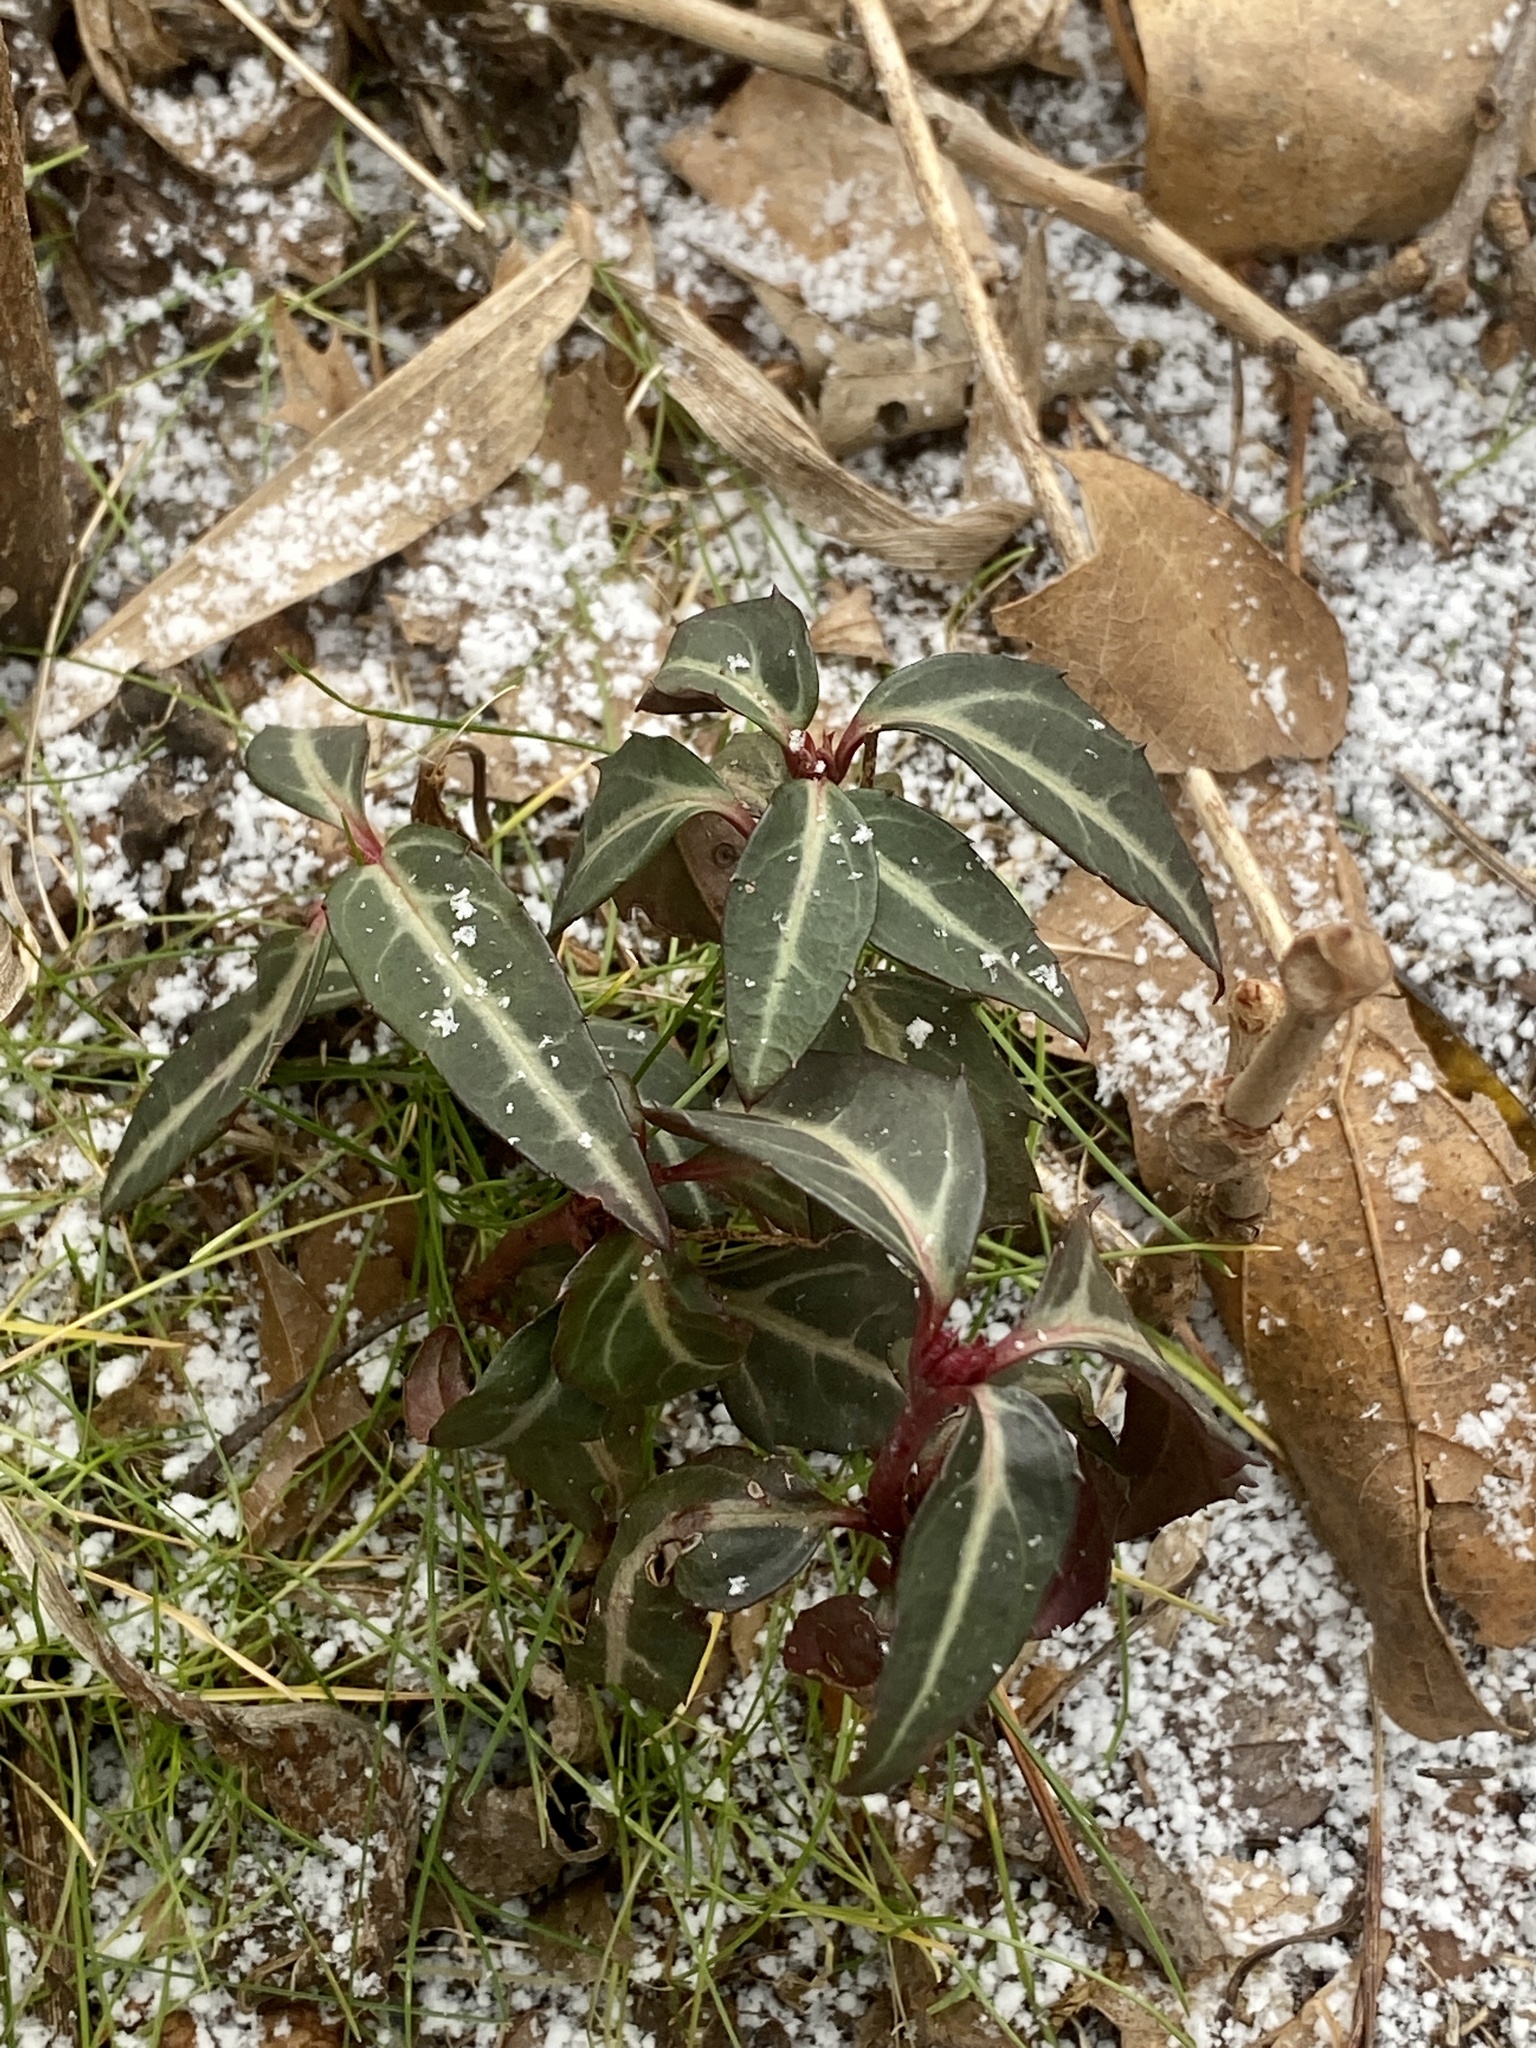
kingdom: Plantae
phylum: Tracheophyta
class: Magnoliopsida
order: Ericales
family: Ericaceae
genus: Chimaphila
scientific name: Chimaphila maculata
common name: Spotted pipsissewa
